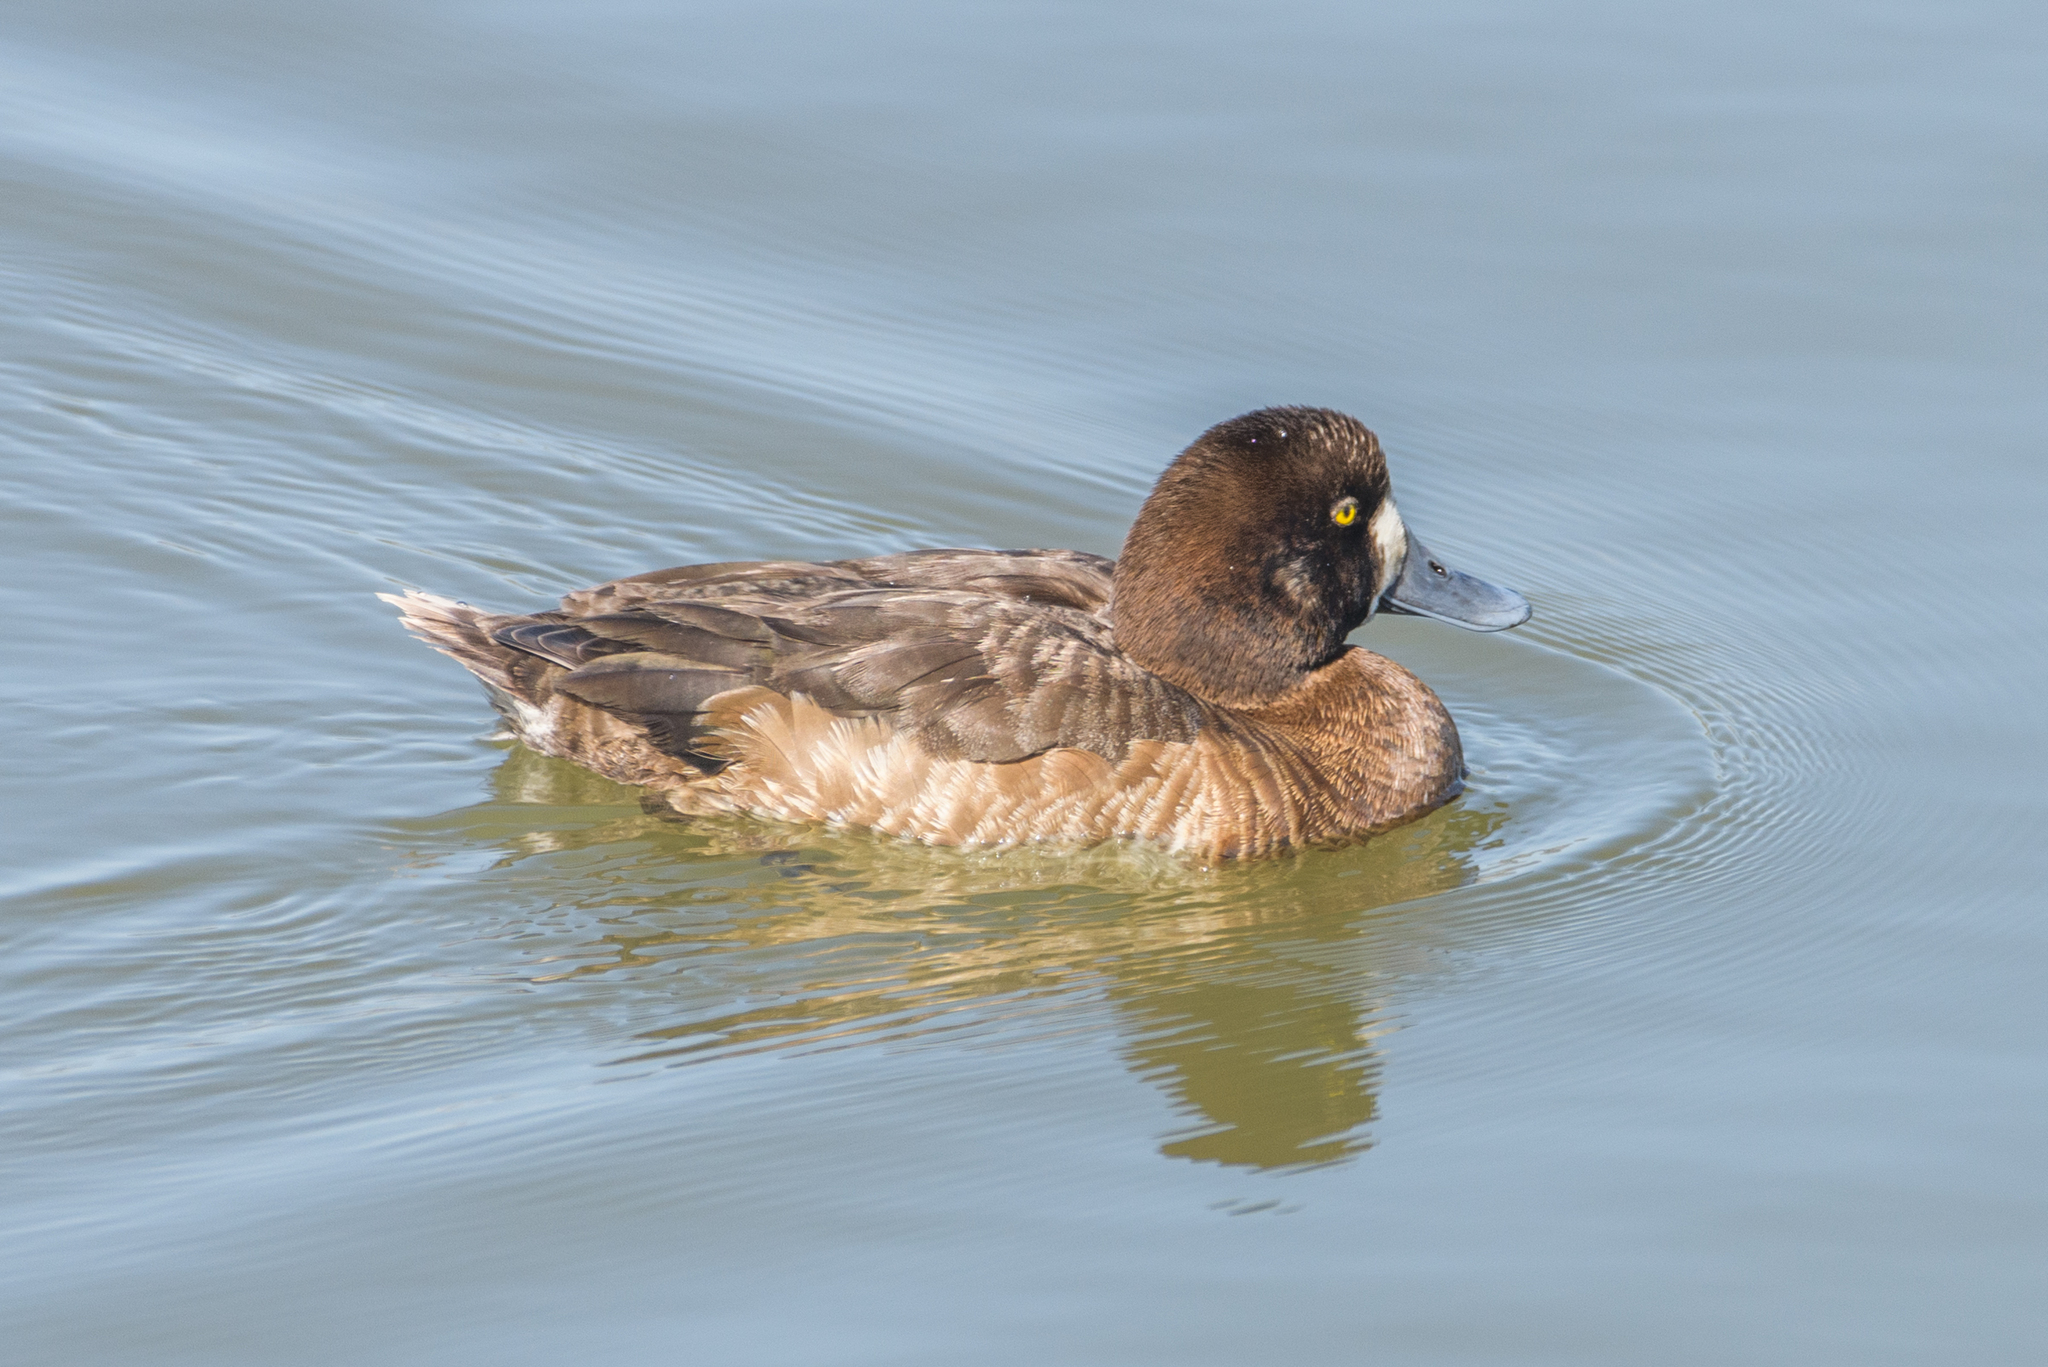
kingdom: Animalia
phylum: Chordata
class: Aves
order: Anseriformes
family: Anatidae
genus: Aythya
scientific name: Aythya marila
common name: Greater scaup
